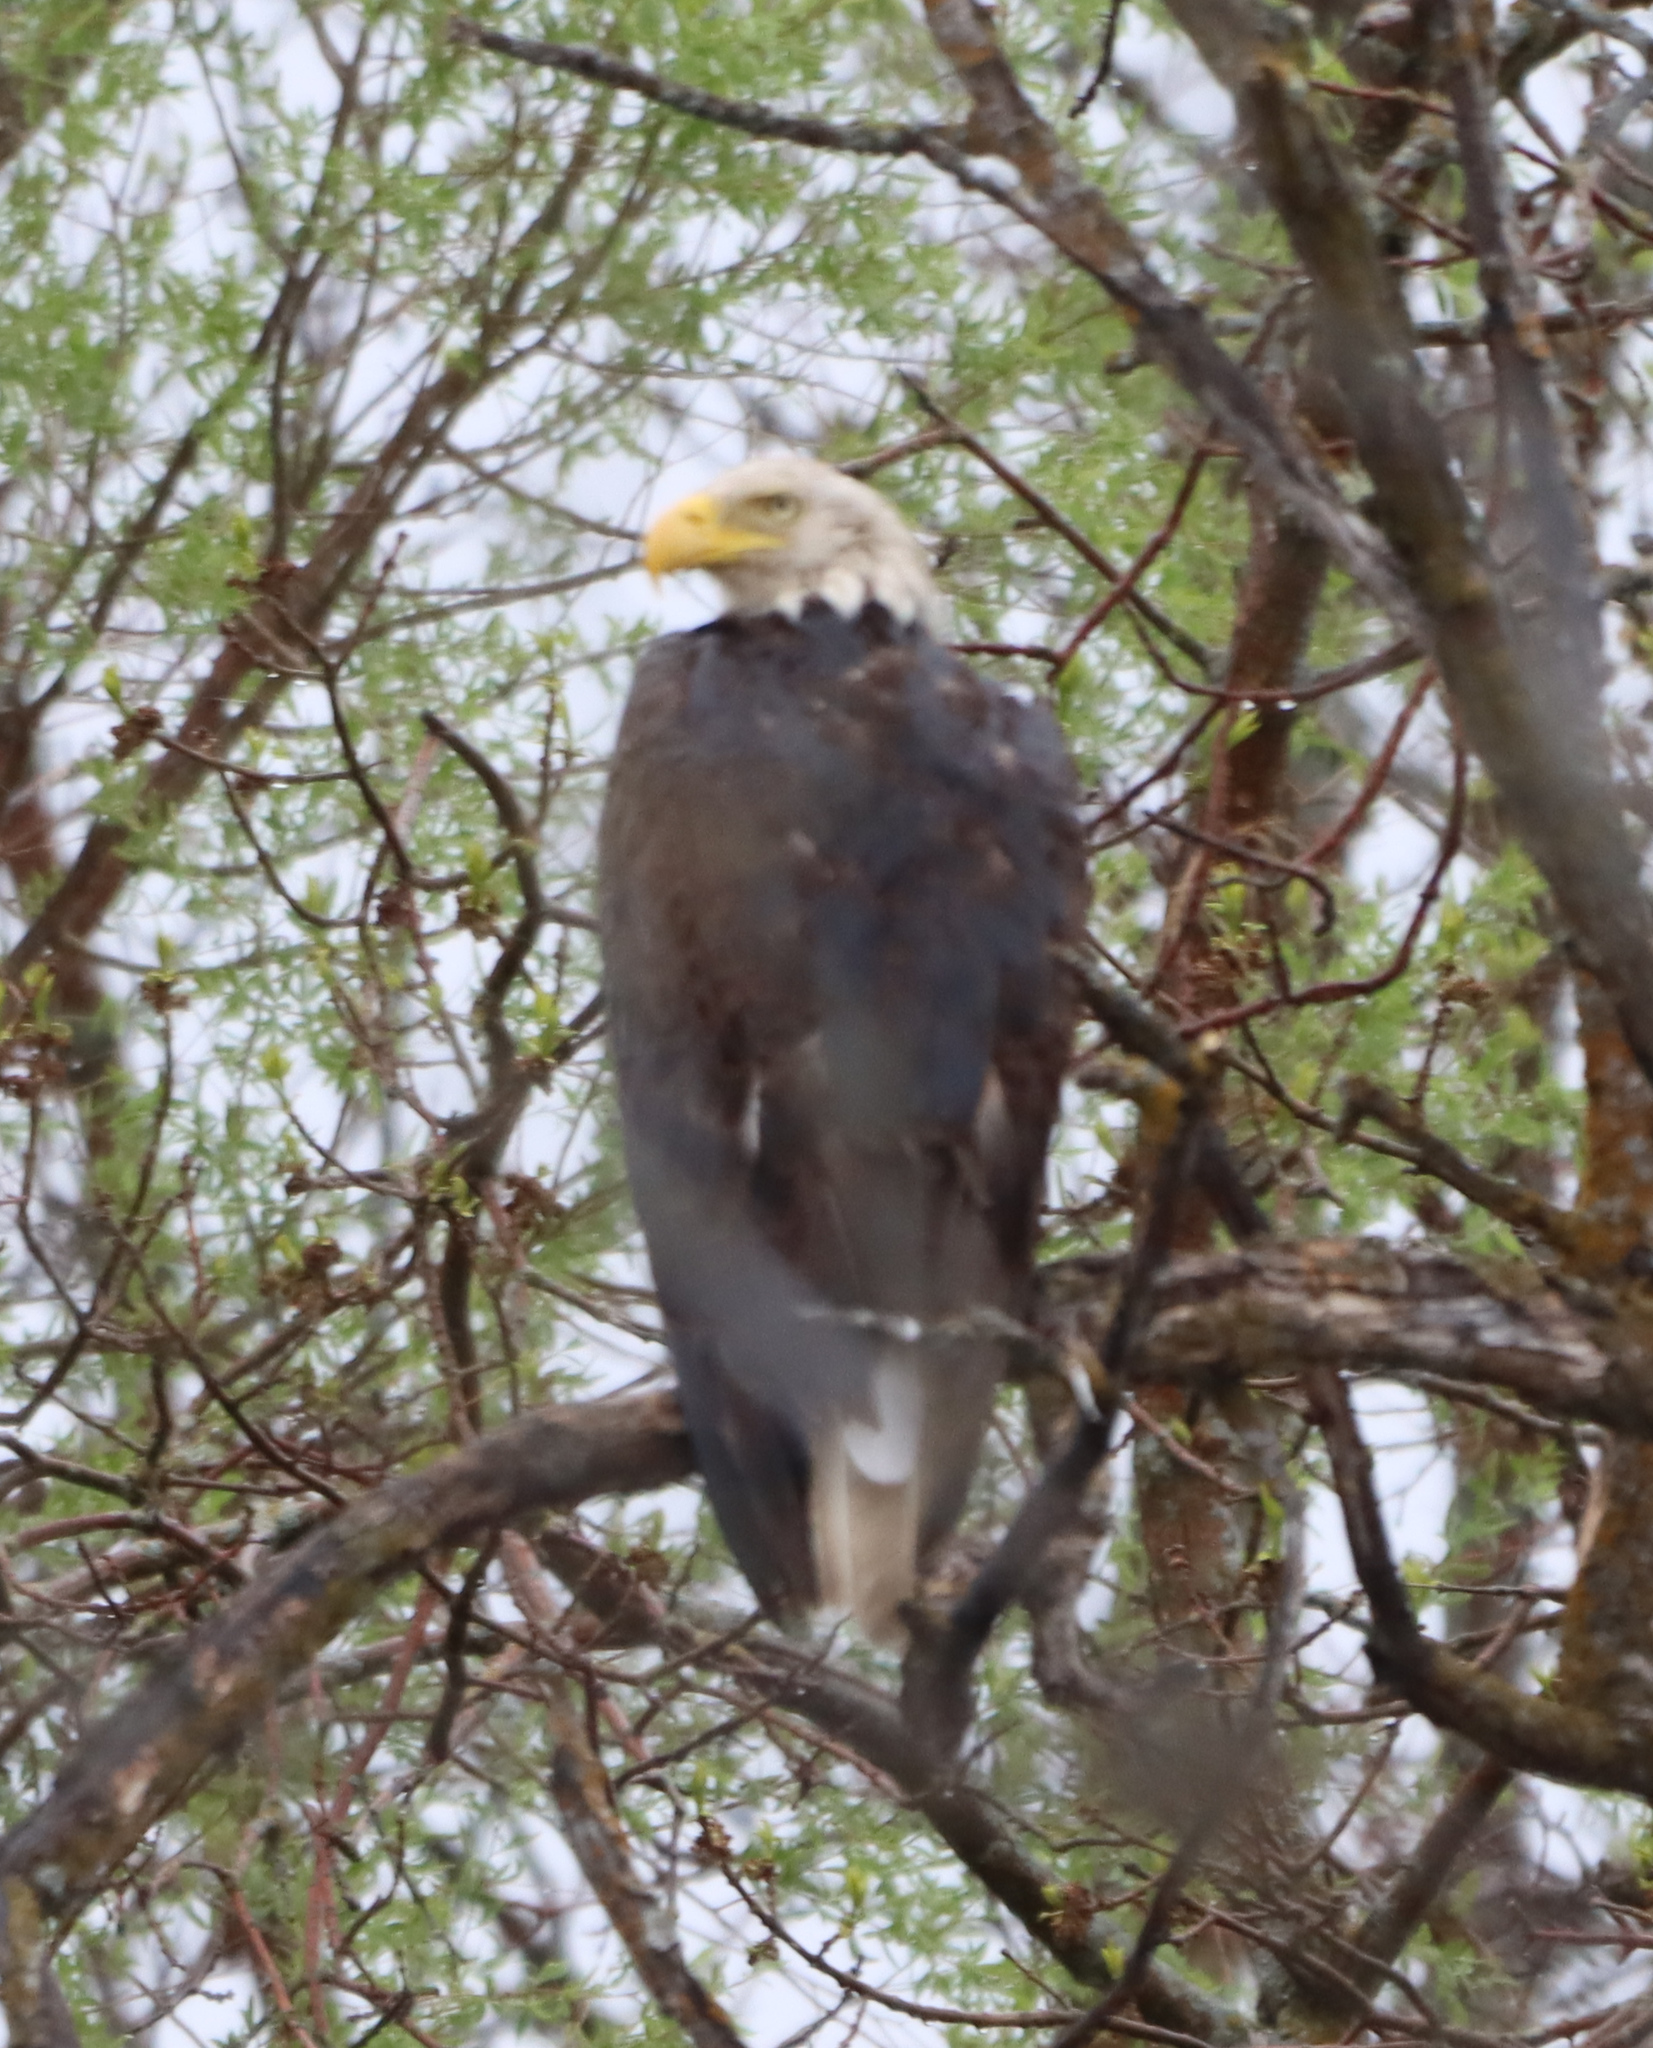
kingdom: Animalia
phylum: Chordata
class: Aves
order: Accipitriformes
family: Accipitridae
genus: Haliaeetus
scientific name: Haliaeetus leucocephalus
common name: Bald eagle
